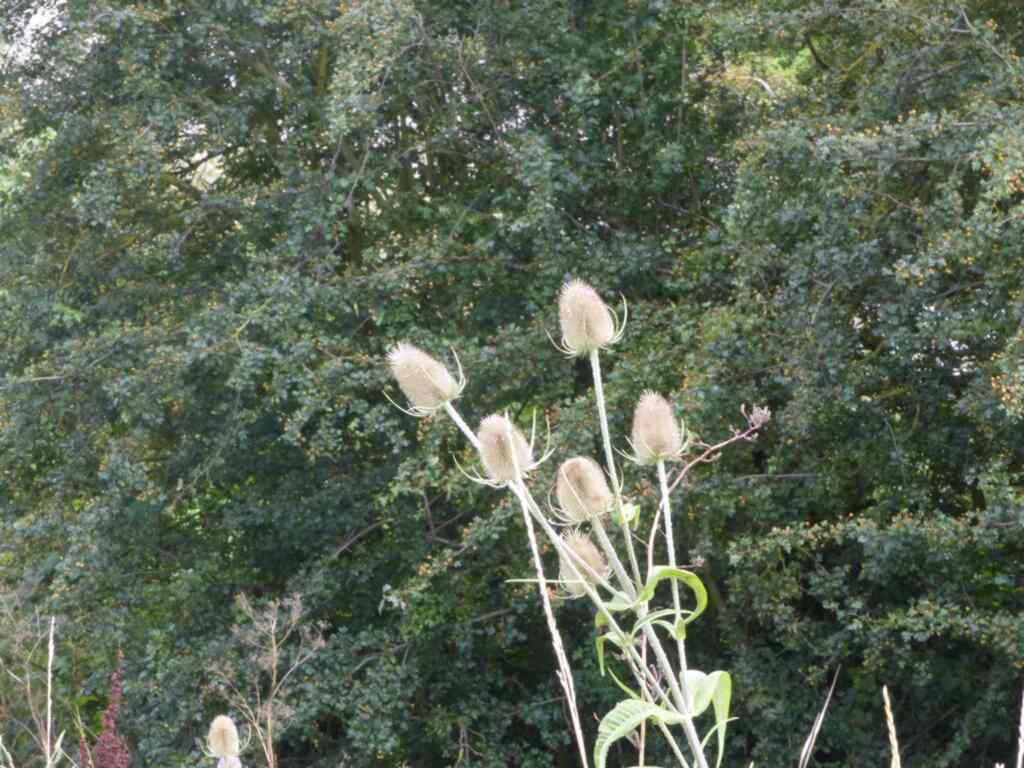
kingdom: Plantae
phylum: Tracheophyta
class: Magnoliopsida
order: Dipsacales
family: Caprifoliaceae
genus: Dipsacus
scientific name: Dipsacus fullonum
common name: Teasel
